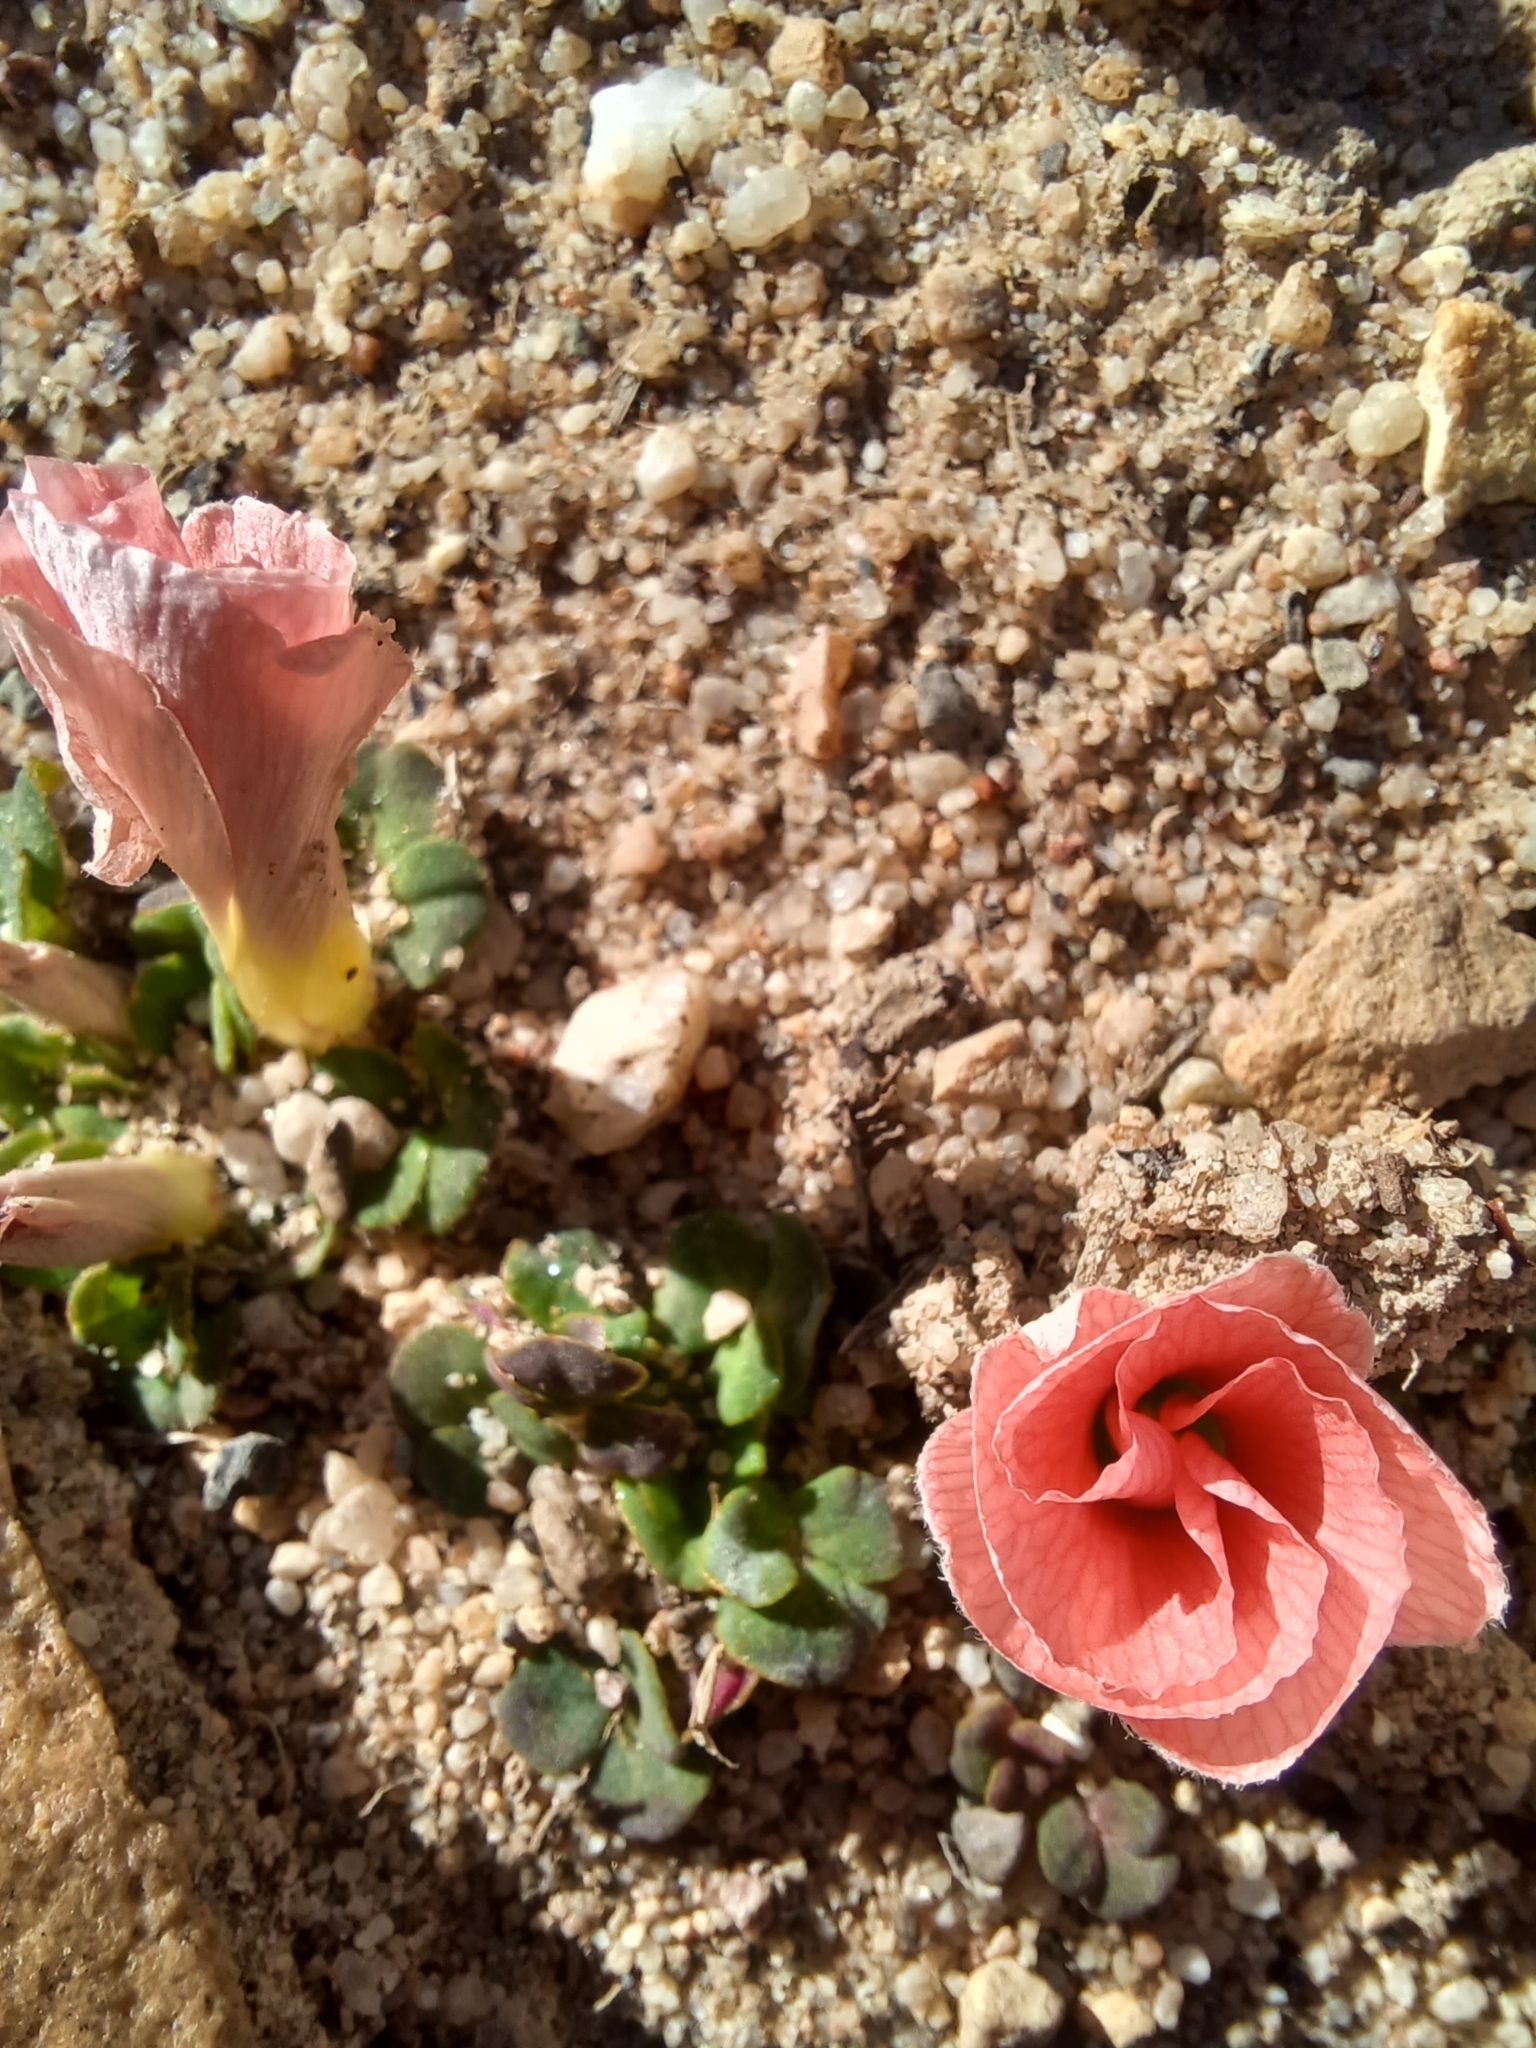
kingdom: Plantae
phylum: Tracheophyta
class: Magnoliopsida
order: Oxalidales
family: Oxalidaceae
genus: Oxalis
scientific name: Oxalis pulchella
